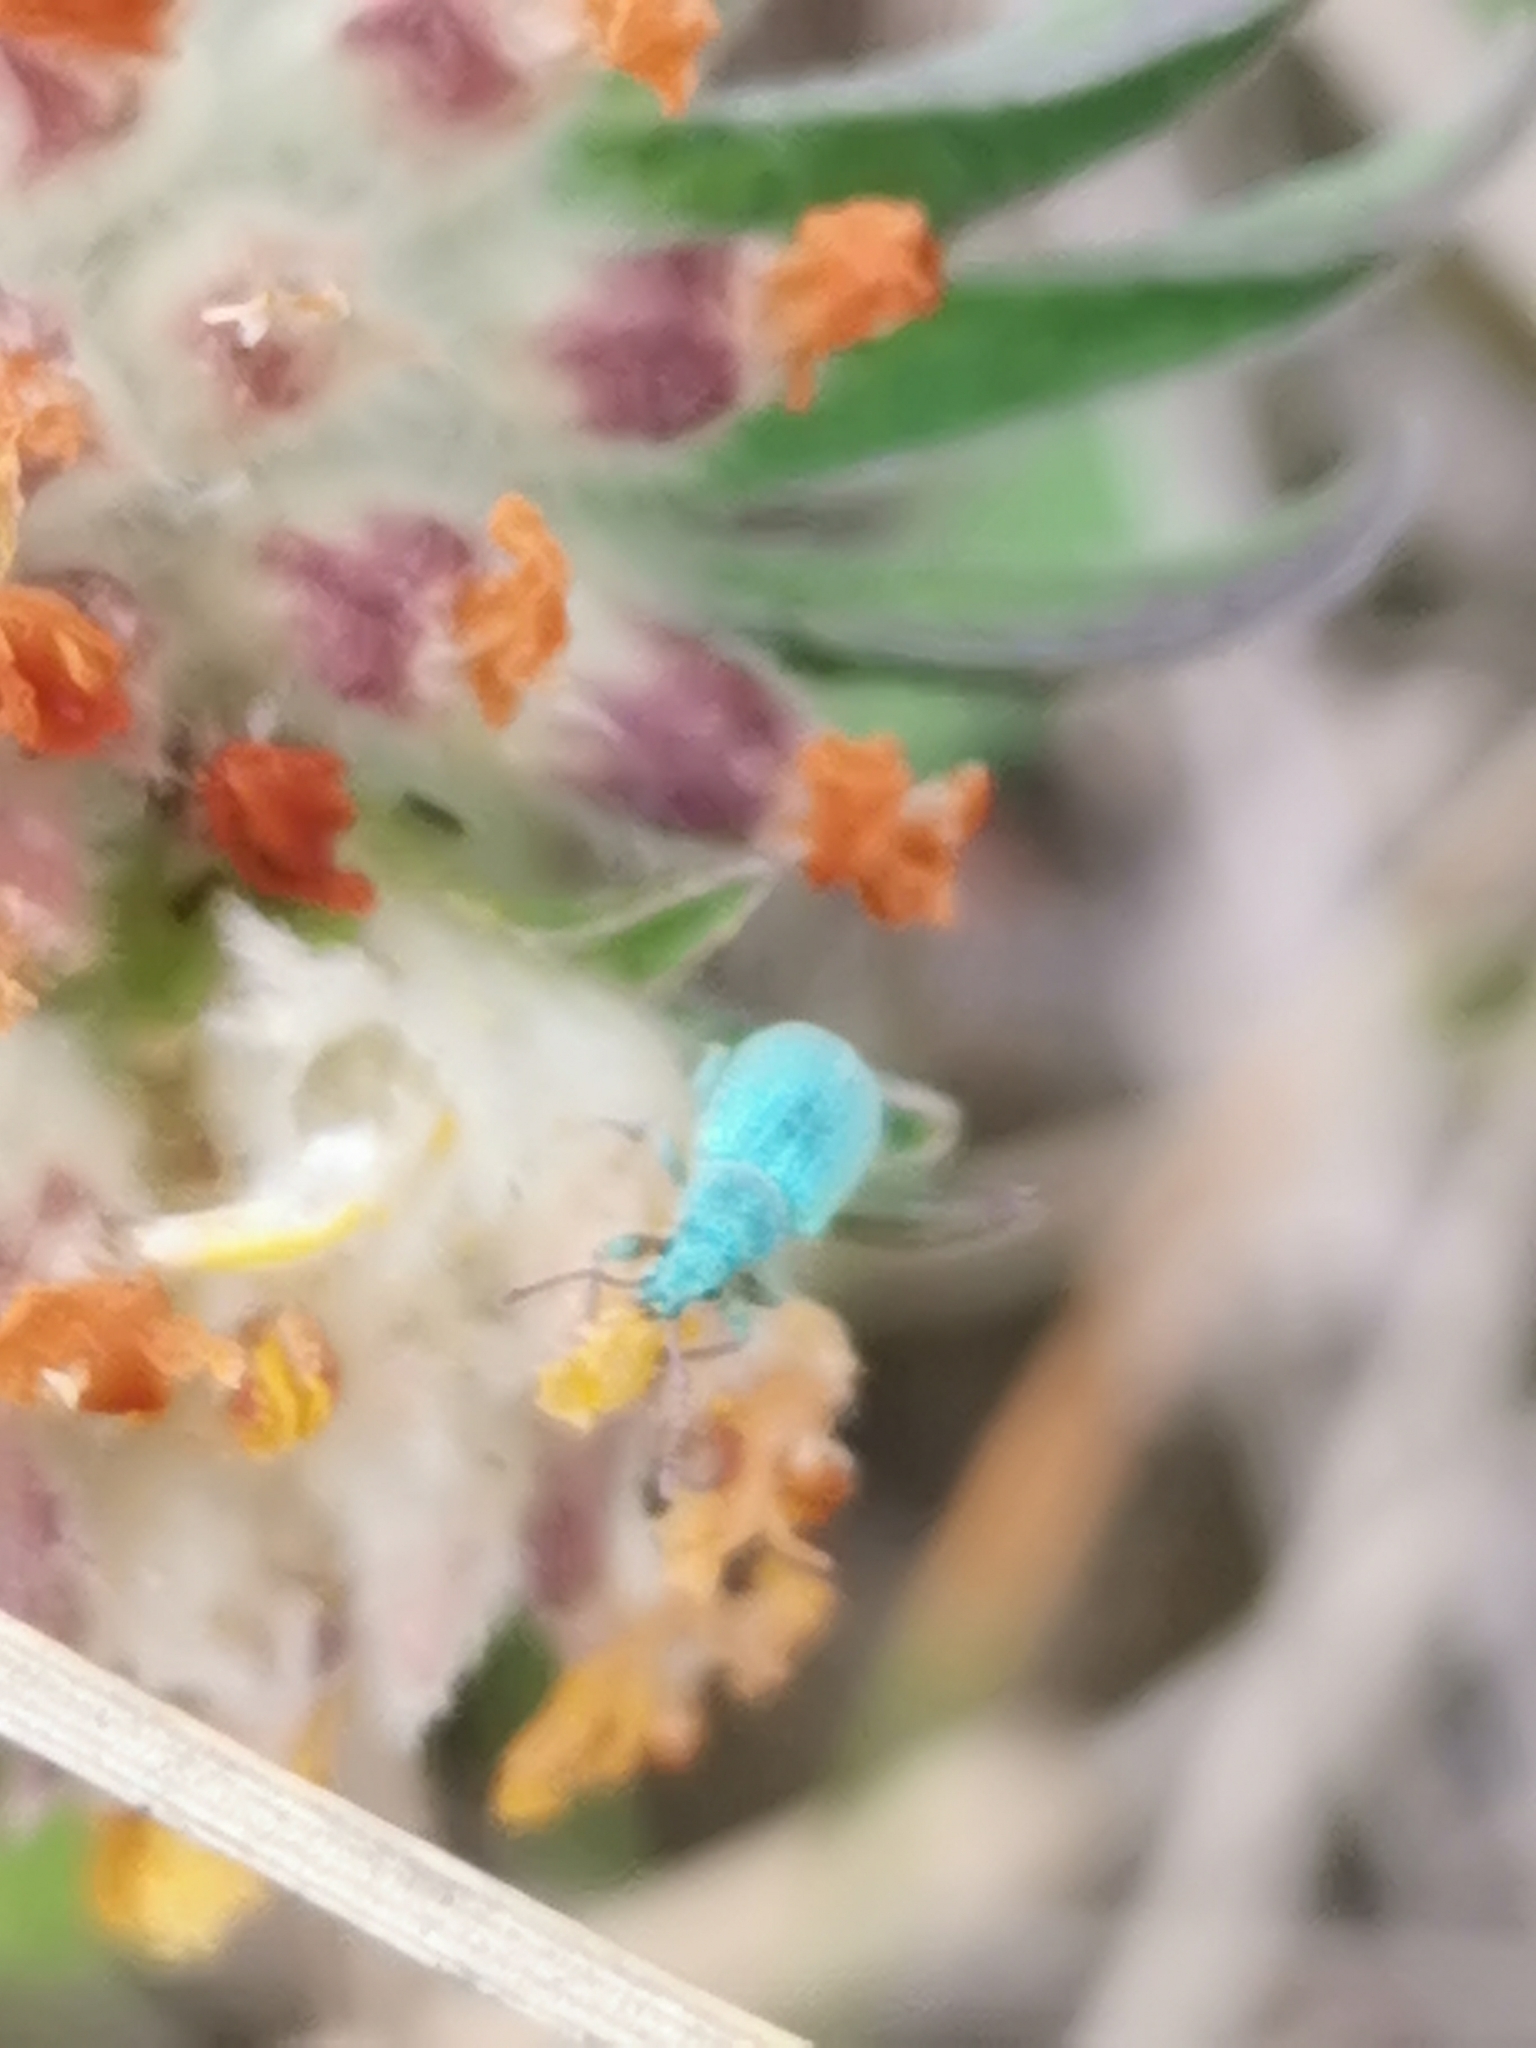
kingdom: Animalia
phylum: Arthropoda
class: Insecta
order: Coleoptera
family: Curculionidae
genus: Phyllobius
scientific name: Phyllobius virideaeris
